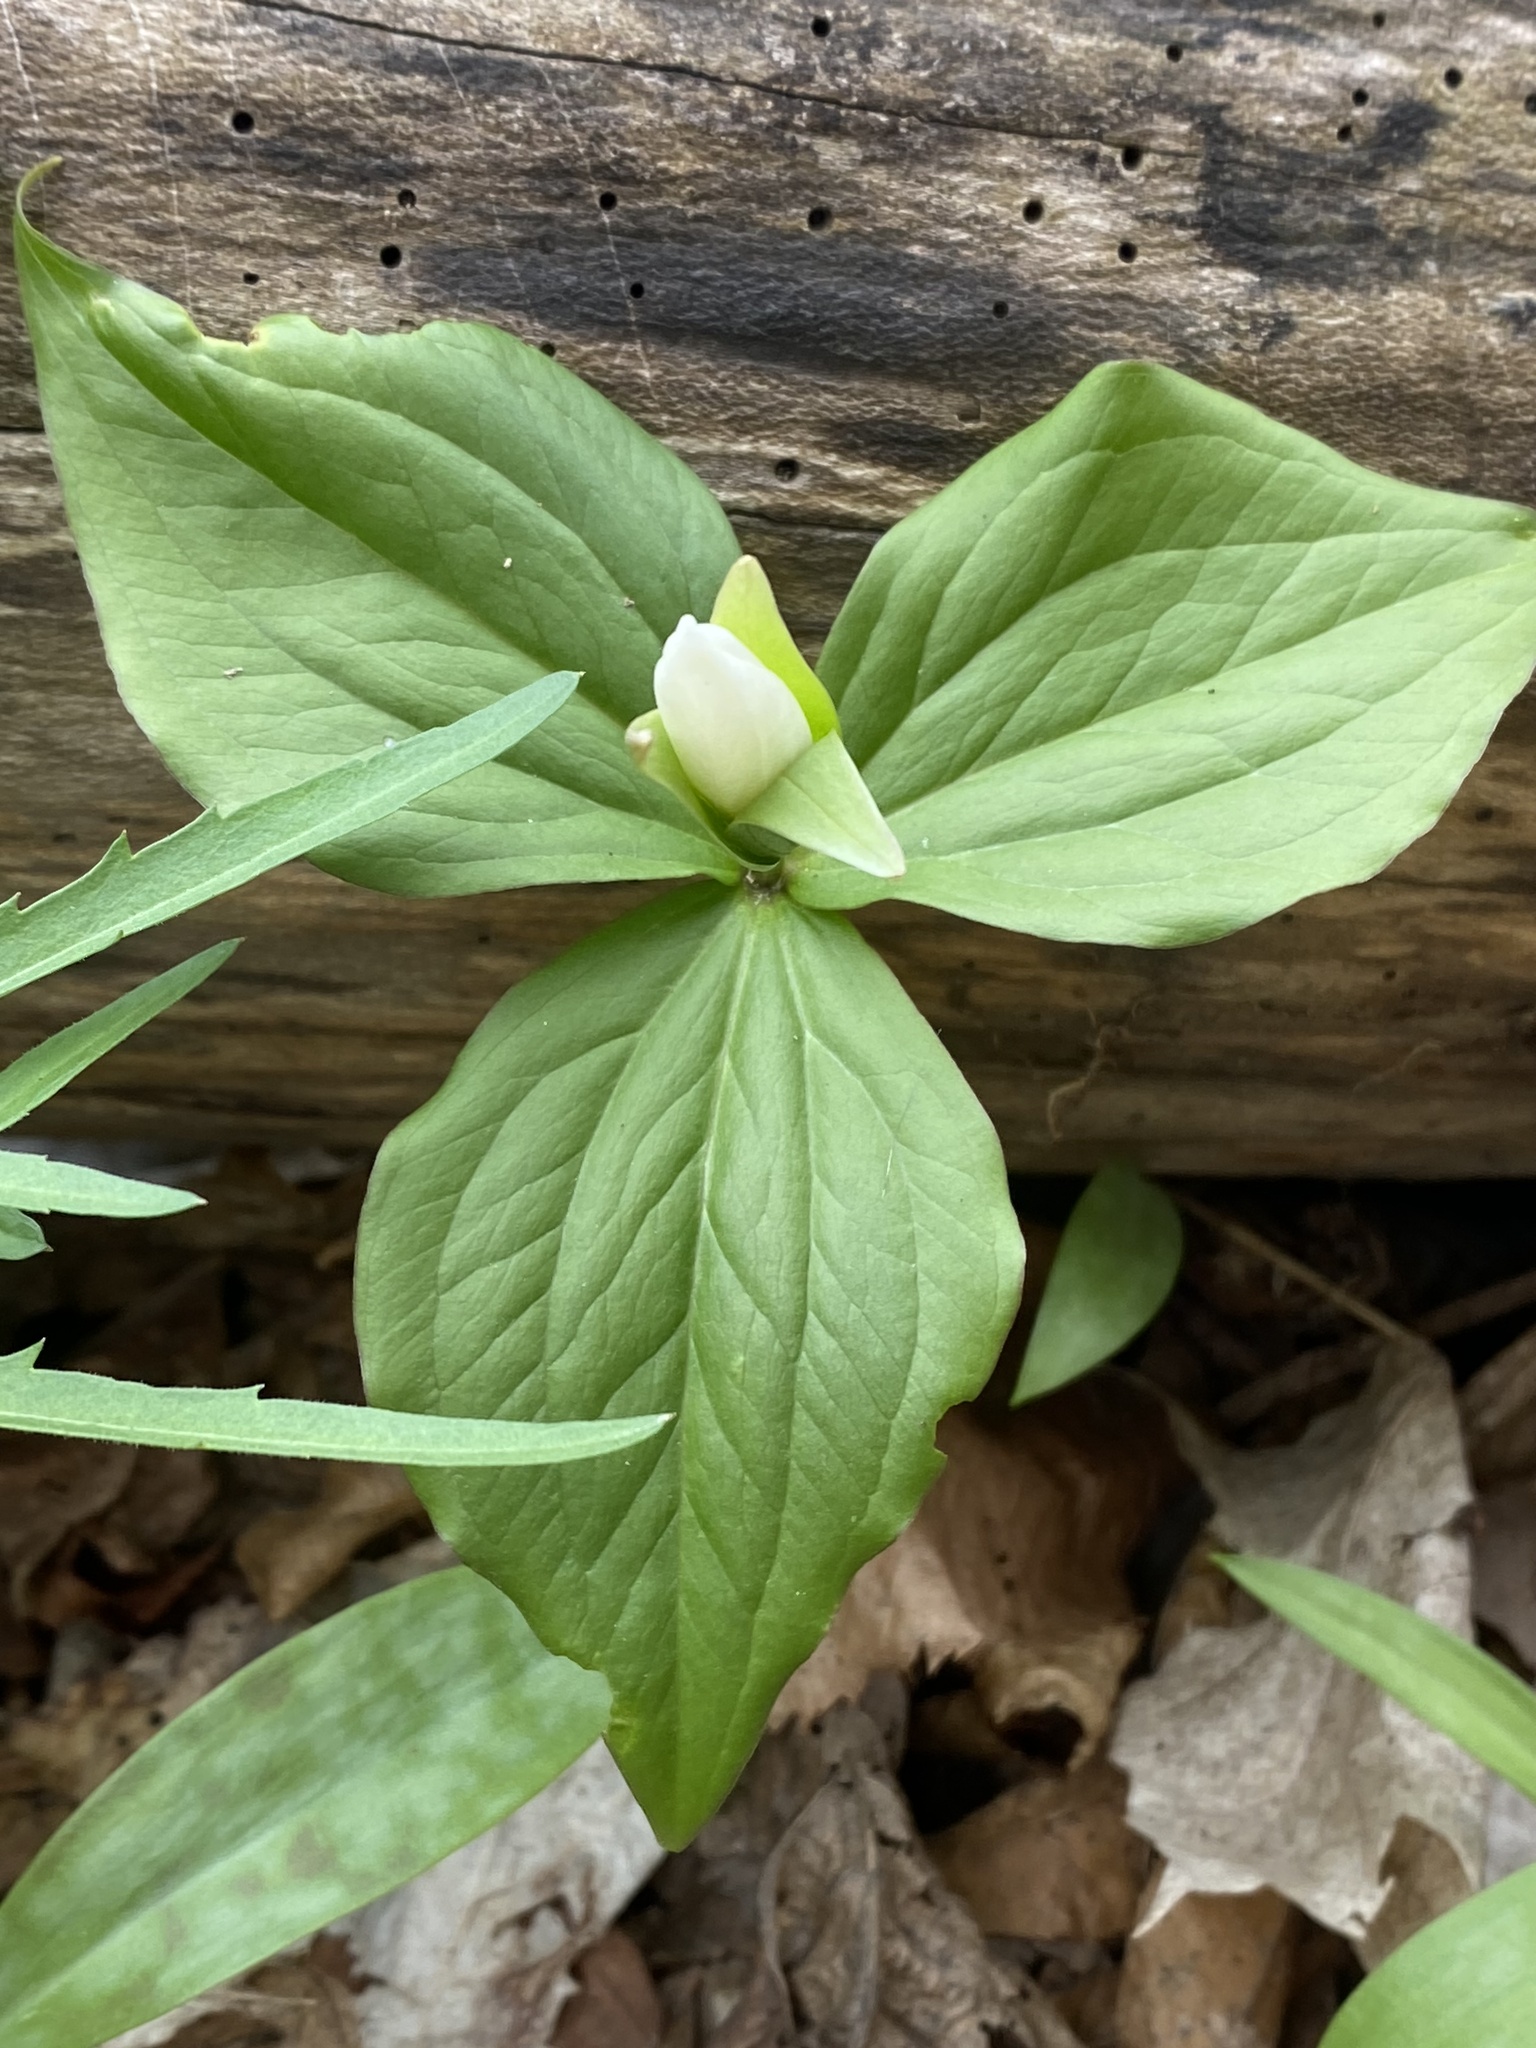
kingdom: Plantae
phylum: Tracheophyta
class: Liliopsida
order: Liliales
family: Melanthiaceae
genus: Trillium
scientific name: Trillium grandiflorum
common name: Great white trillium
